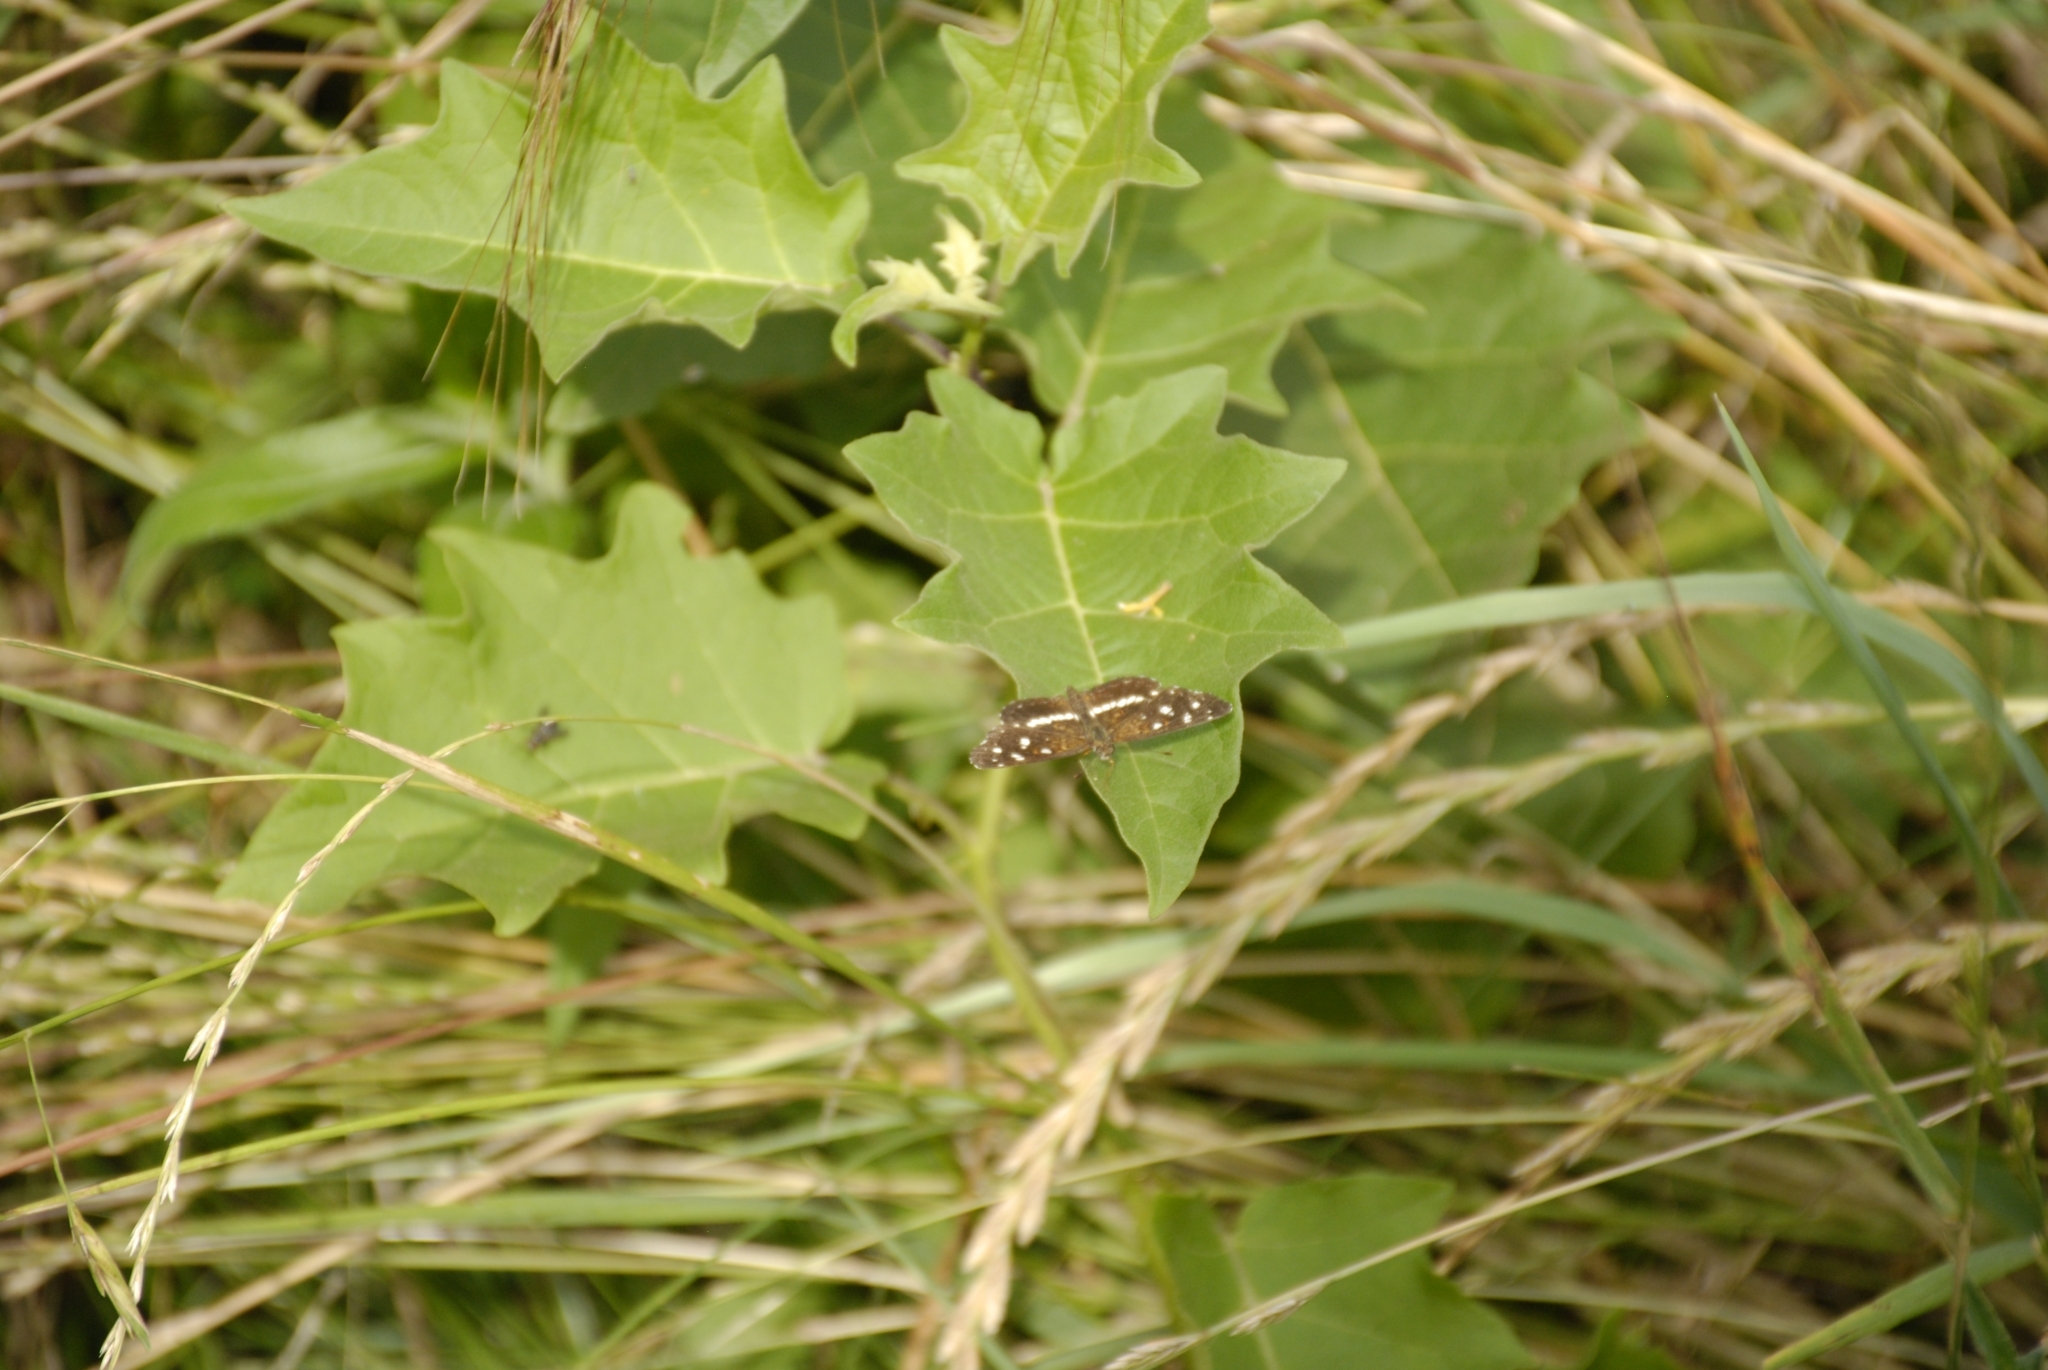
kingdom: Animalia
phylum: Arthropoda
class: Insecta
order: Lepidoptera
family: Nymphalidae
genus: Ortilia
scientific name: Ortilia ithra
